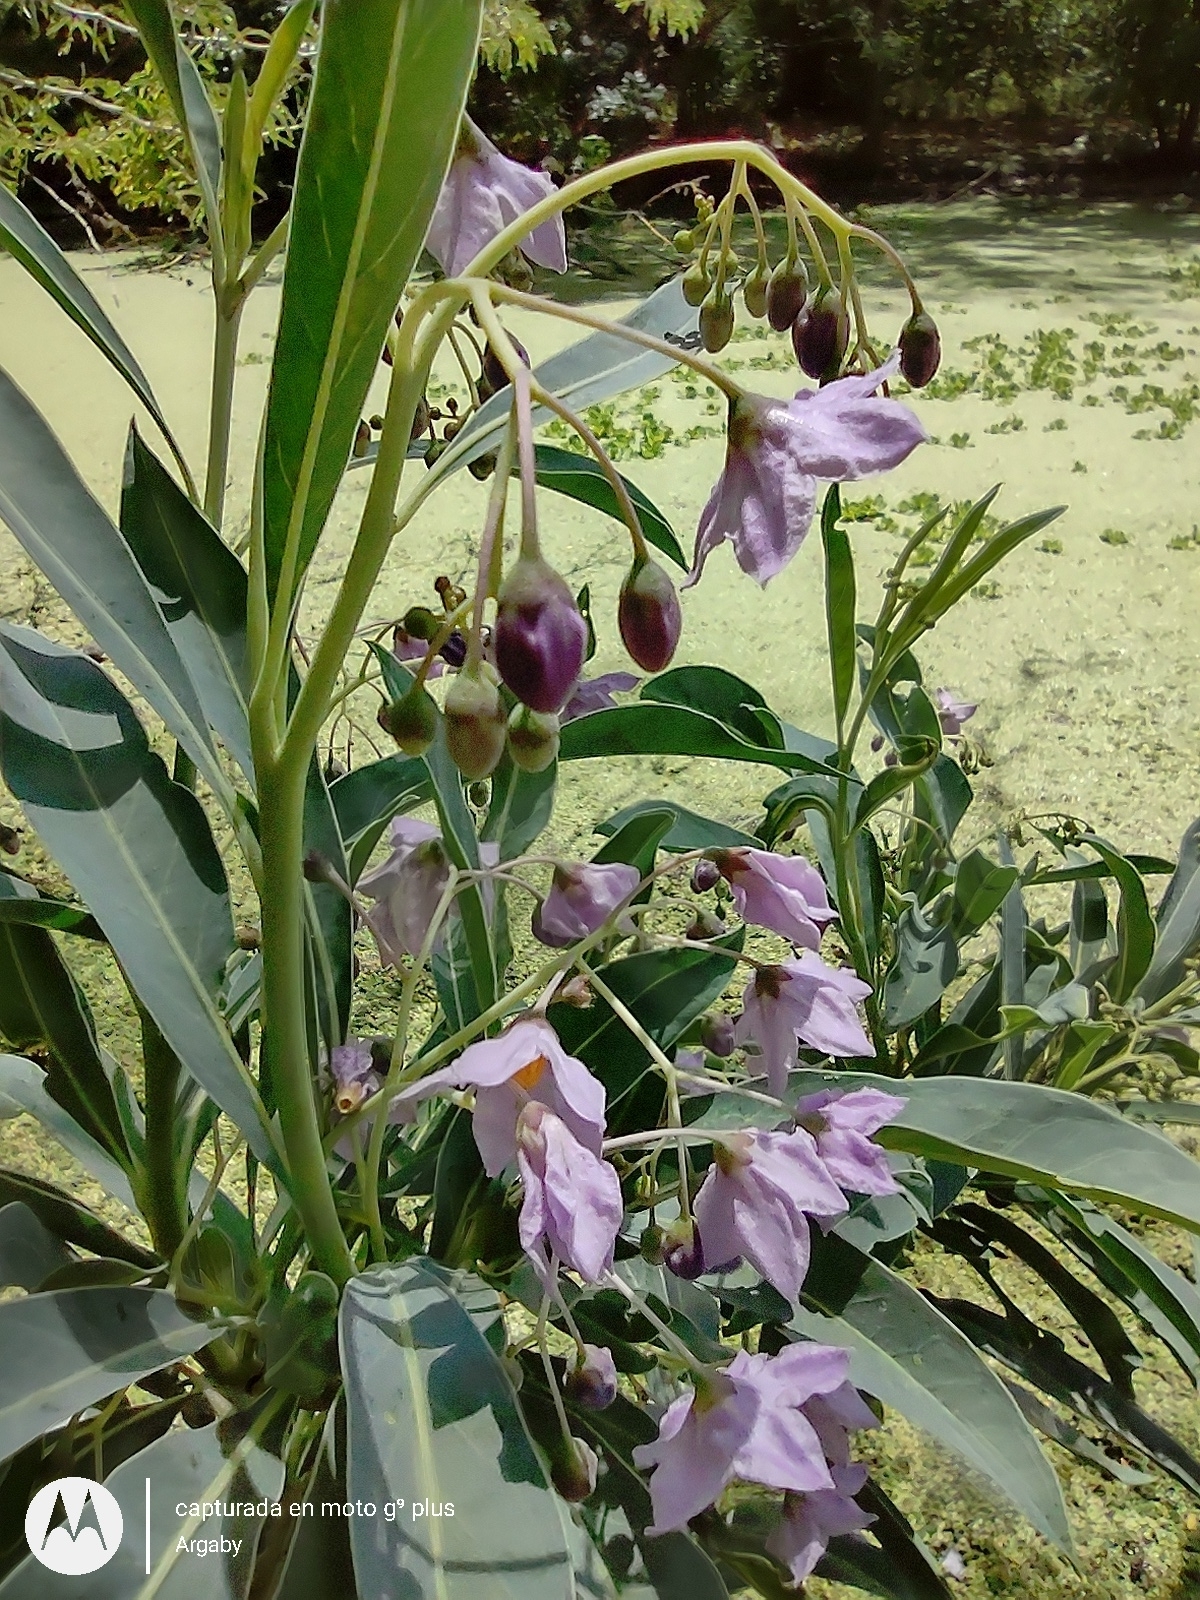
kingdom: Plantae
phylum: Tracheophyta
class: Magnoliopsida
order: Solanales
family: Solanaceae
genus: Solanum
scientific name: Solanum glaucophyllum
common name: Waxyleaf nightshade
